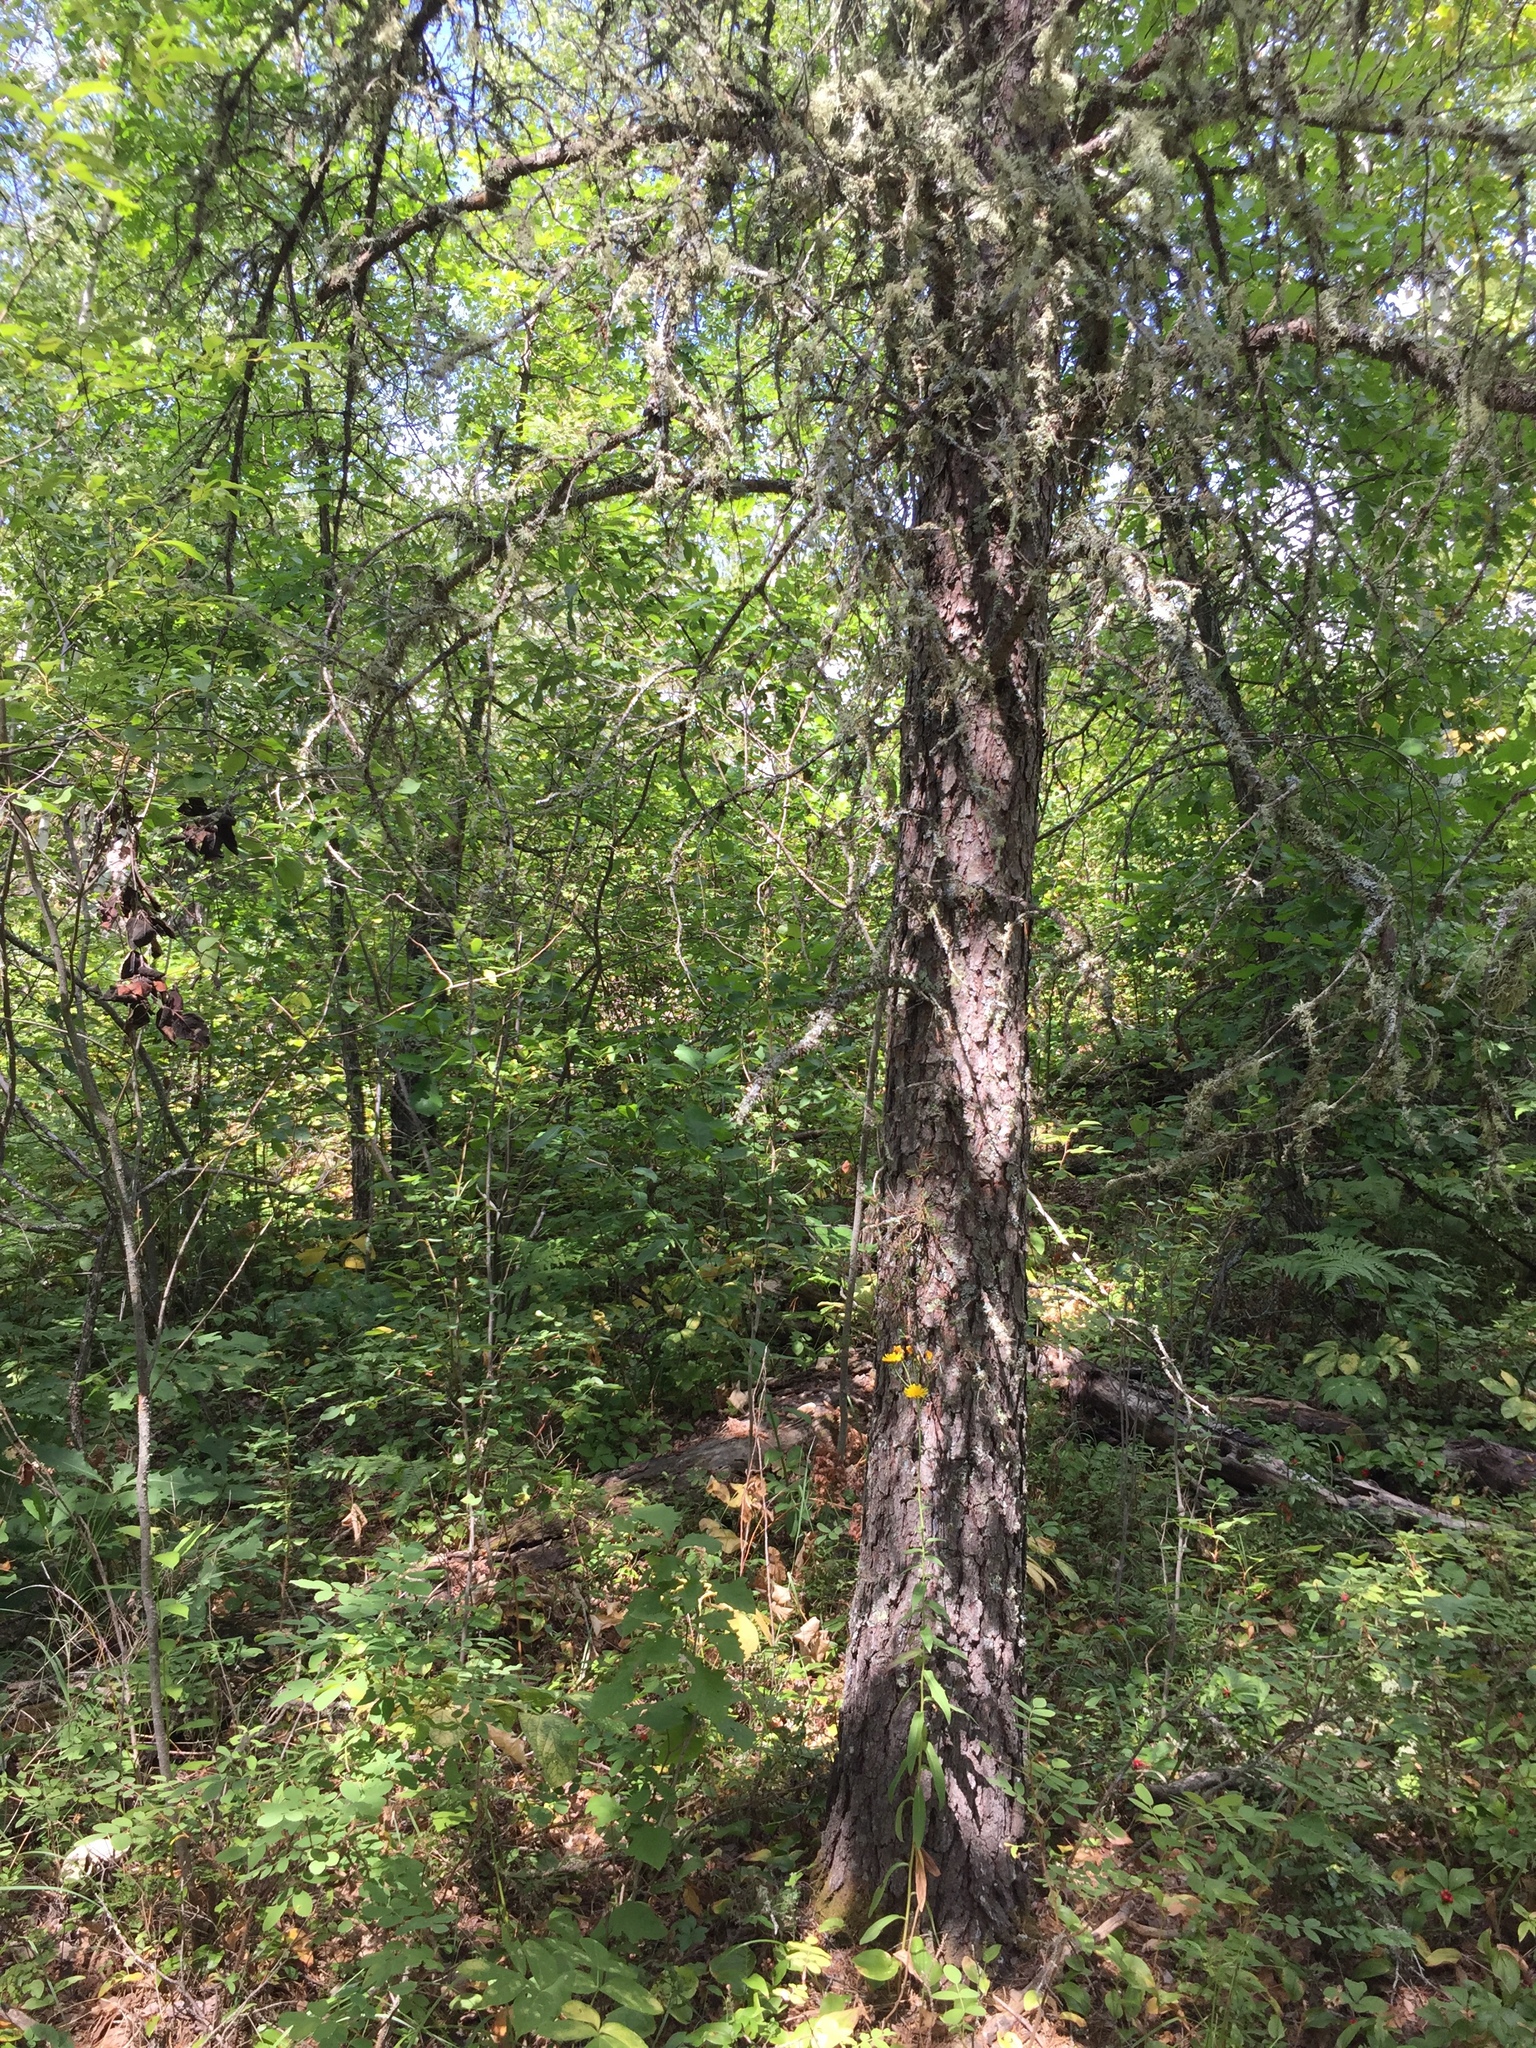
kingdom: Plantae
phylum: Tracheophyta
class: Pinopsida
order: Pinales
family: Pinaceae
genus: Pinus
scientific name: Pinus banksiana
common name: Jack pine
